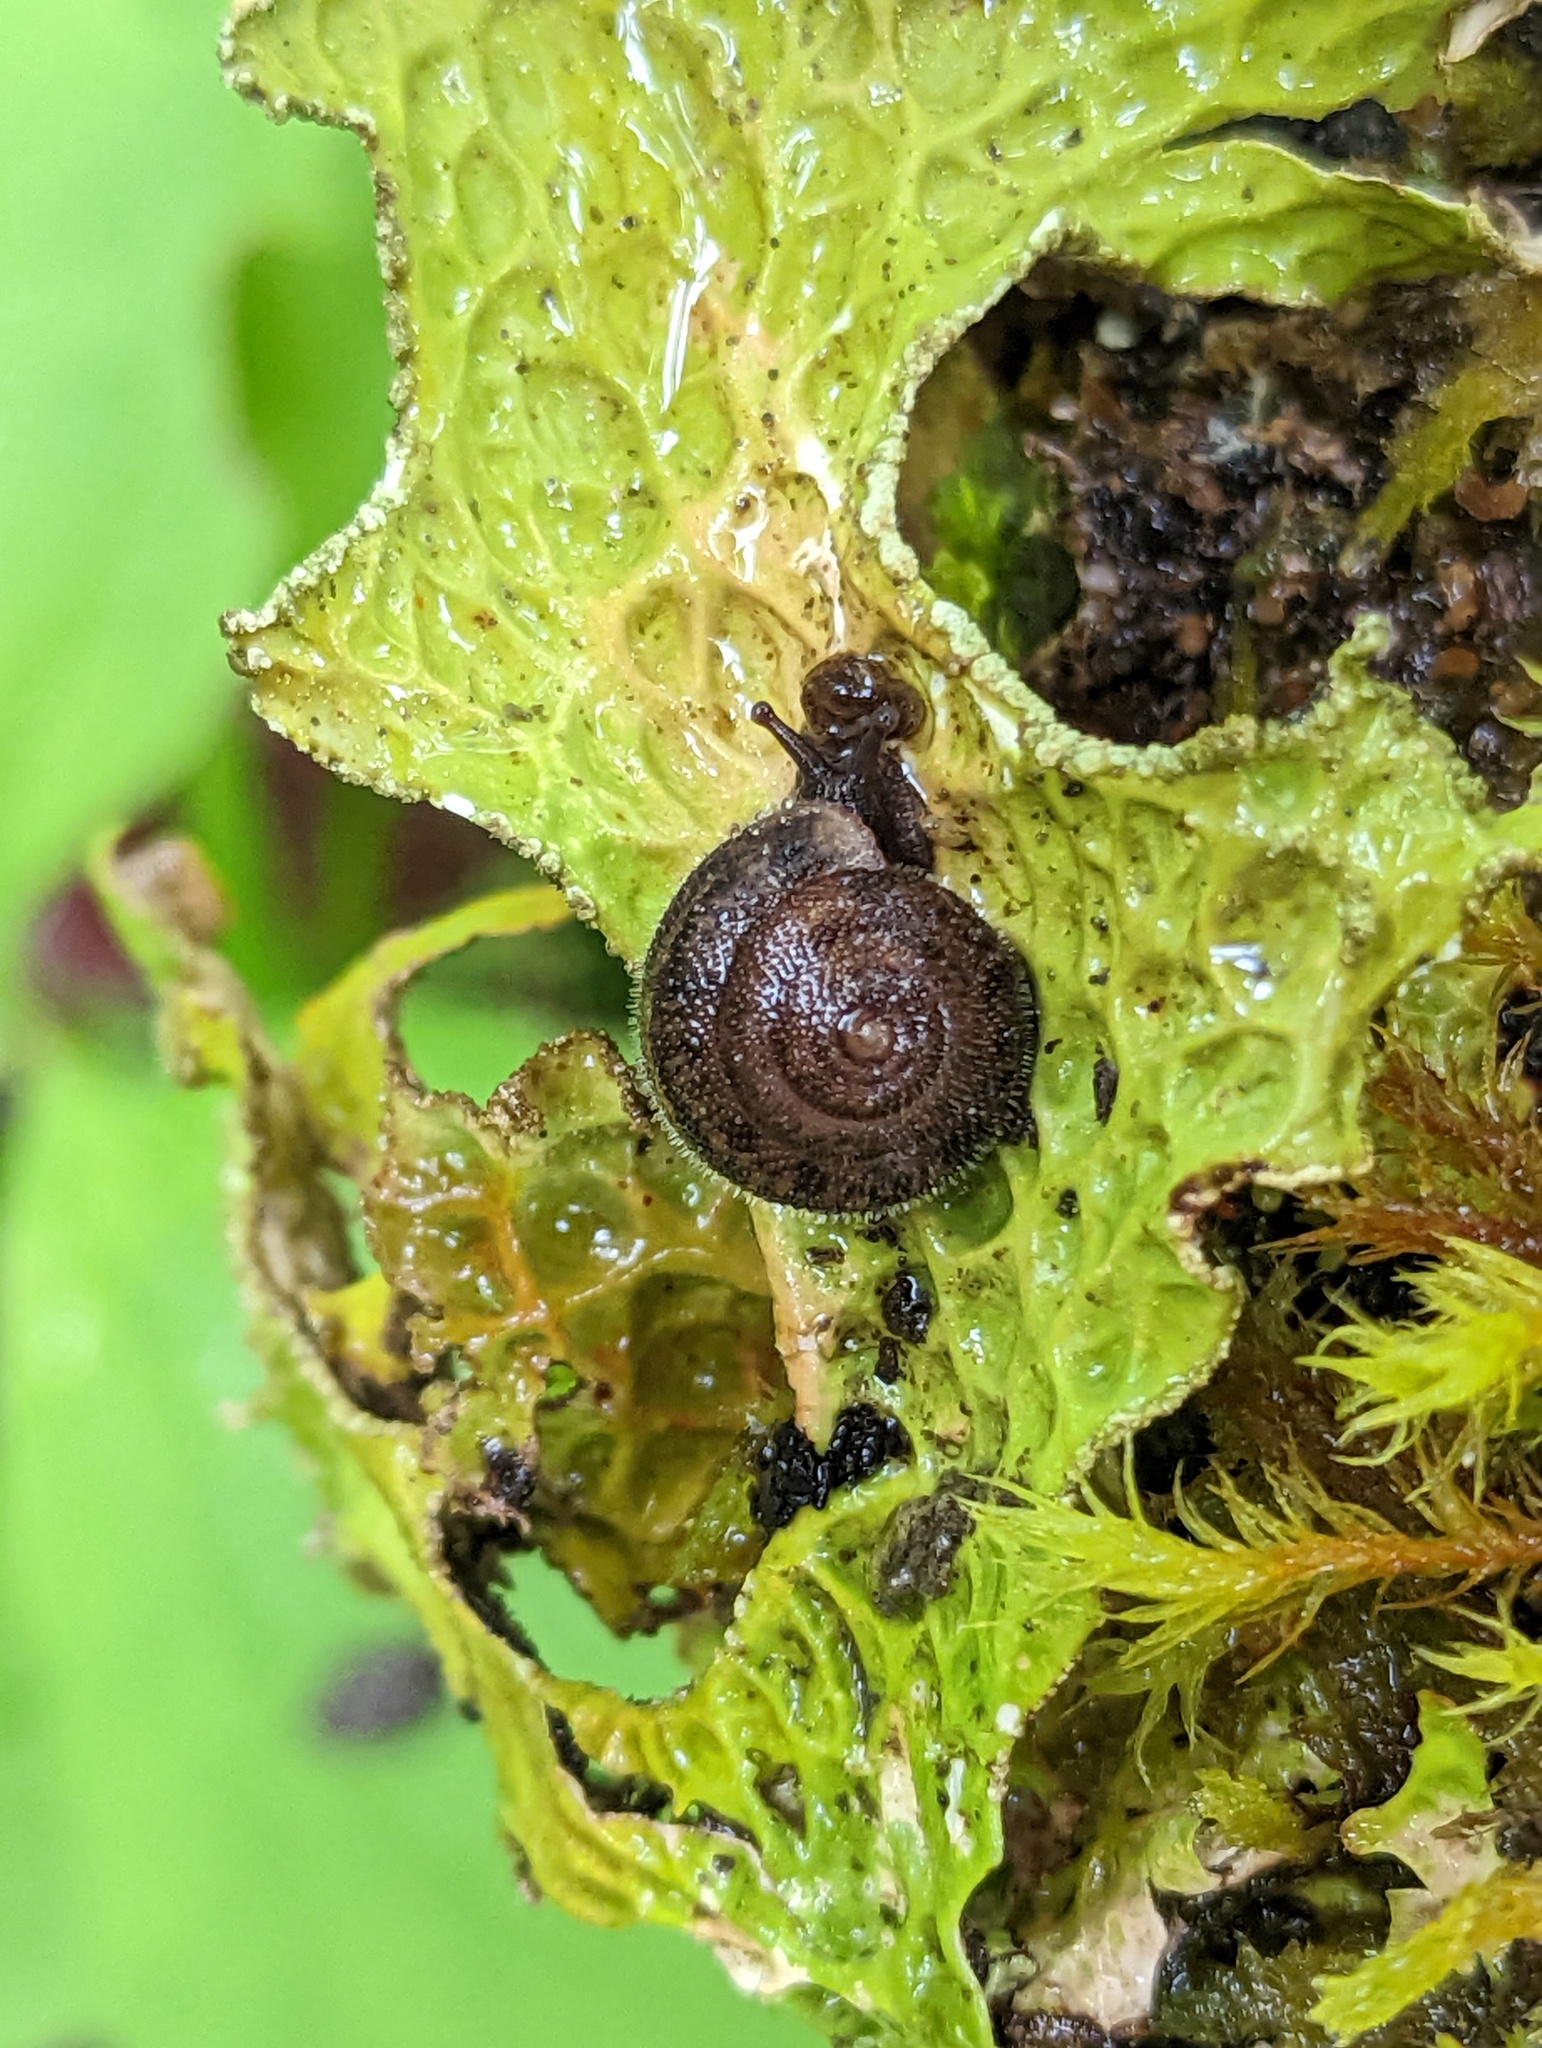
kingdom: Animalia
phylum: Mollusca
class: Gastropoda
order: Stylommatophora
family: Polygyridae
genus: Vespericola
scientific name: Vespericola columbianus
